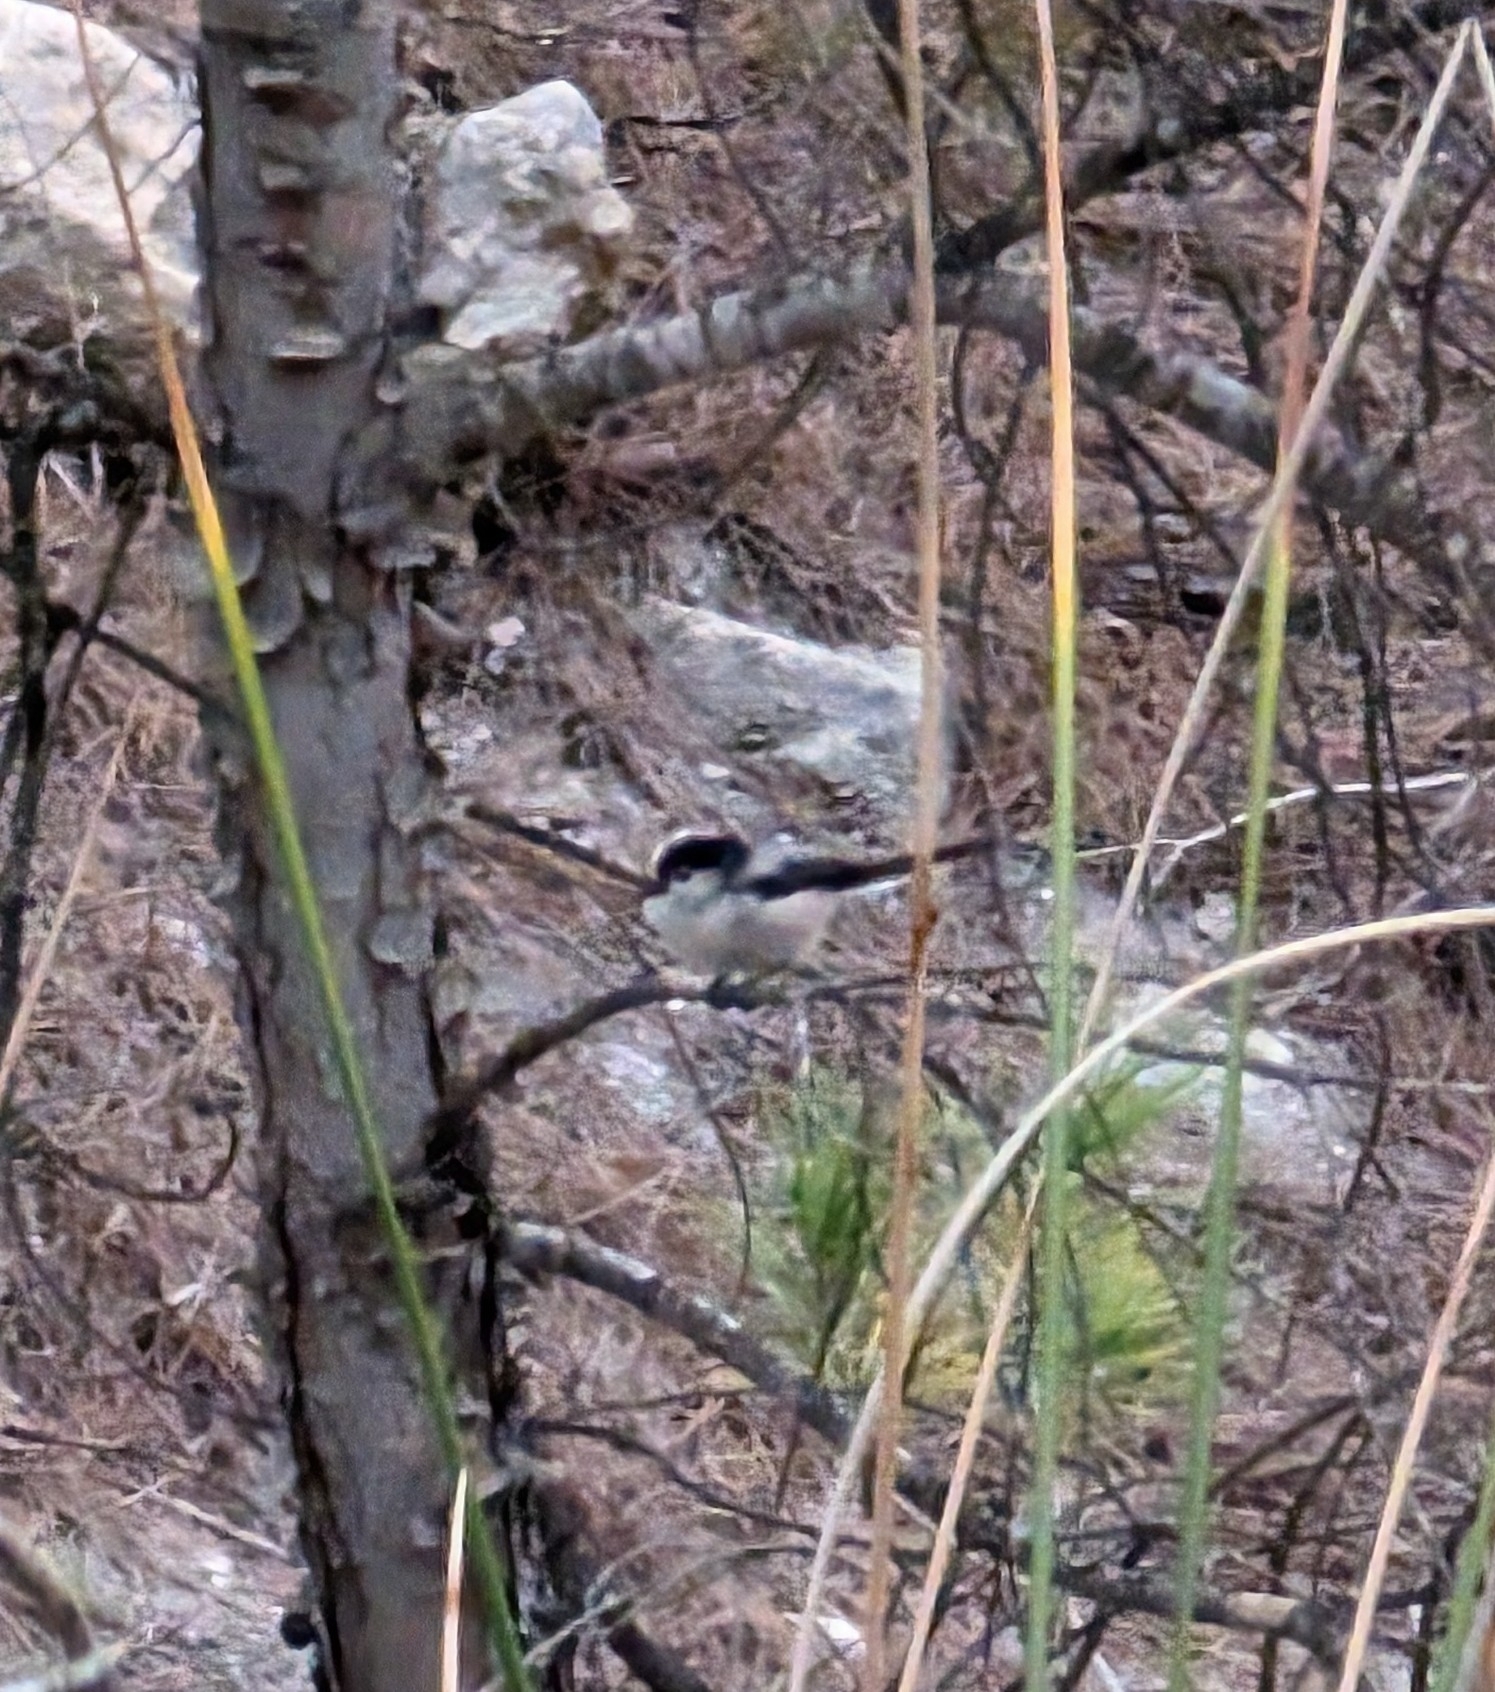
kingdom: Animalia
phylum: Chordata
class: Aves
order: Passeriformes
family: Aegithalidae
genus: Aegithalos
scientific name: Aegithalos caudatus
